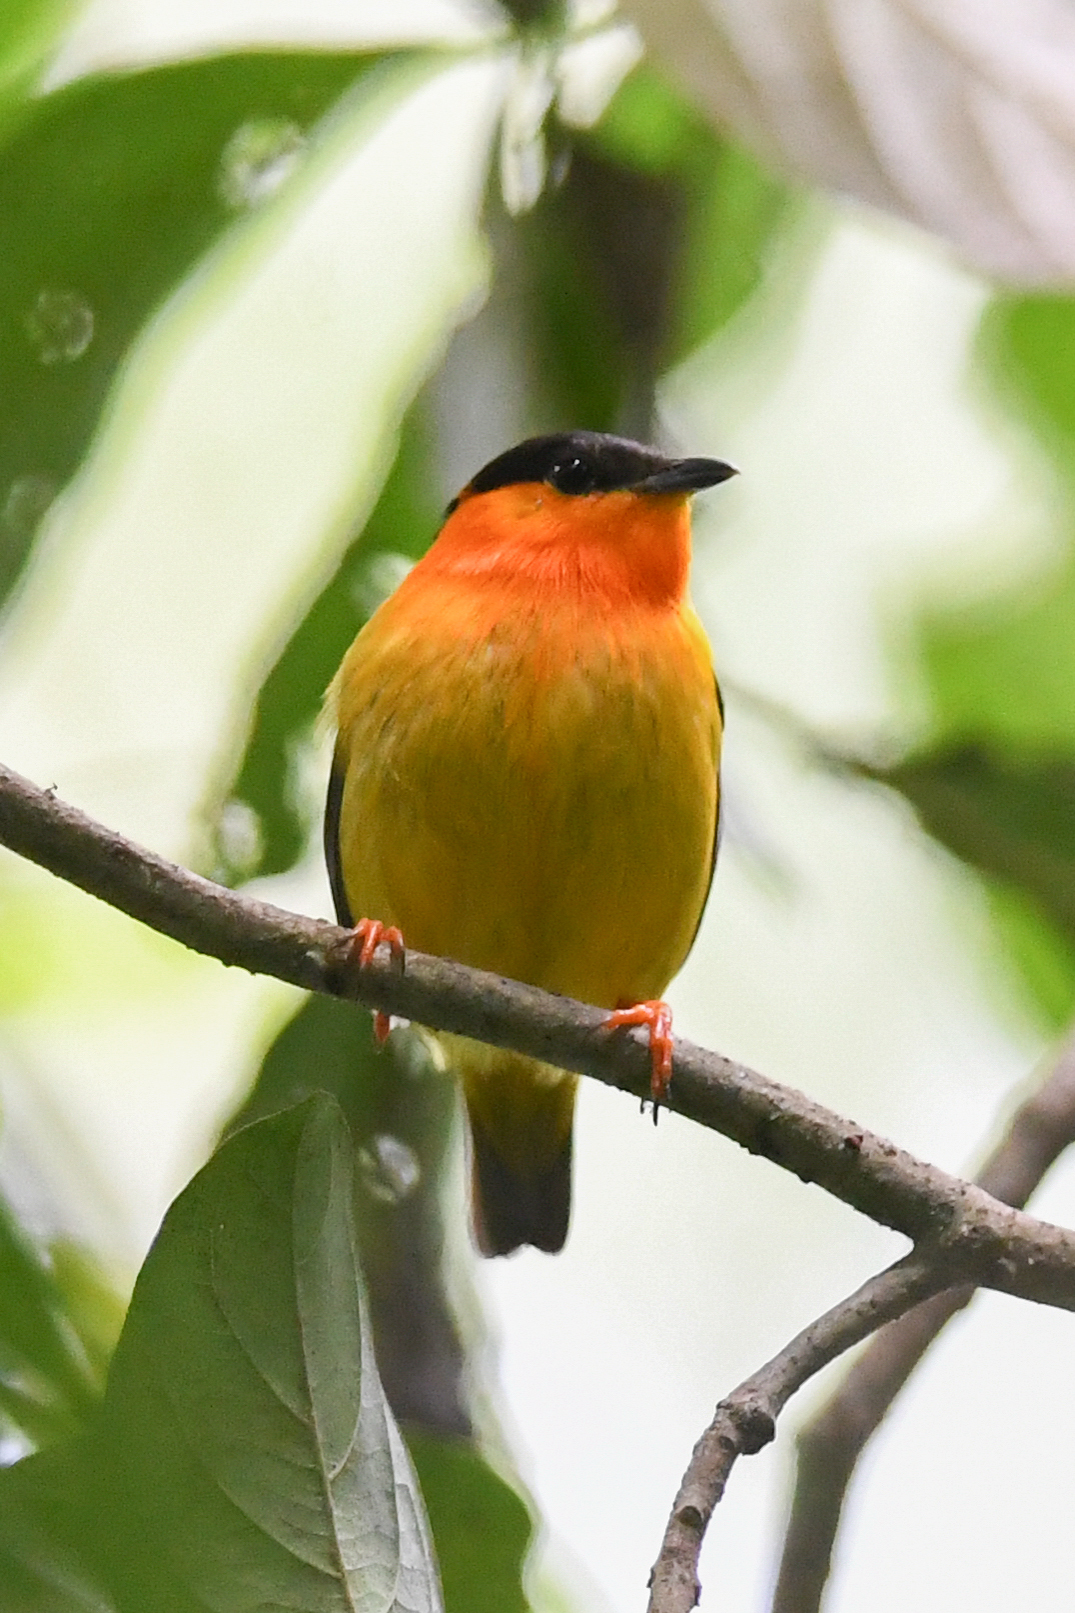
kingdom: Animalia
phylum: Chordata
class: Aves
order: Passeriformes
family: Pipridae
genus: Manacus
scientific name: Manacus aurantiacus
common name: Orange-collared manakin
